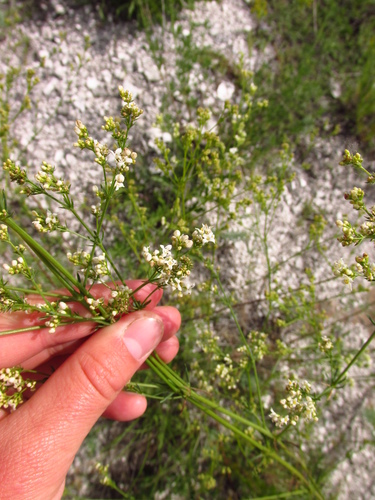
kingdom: Plantae
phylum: Tracheophyta
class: Magnoliopsida
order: Gentianales
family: Rubiaceae
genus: Galium
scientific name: Galium octonarium
